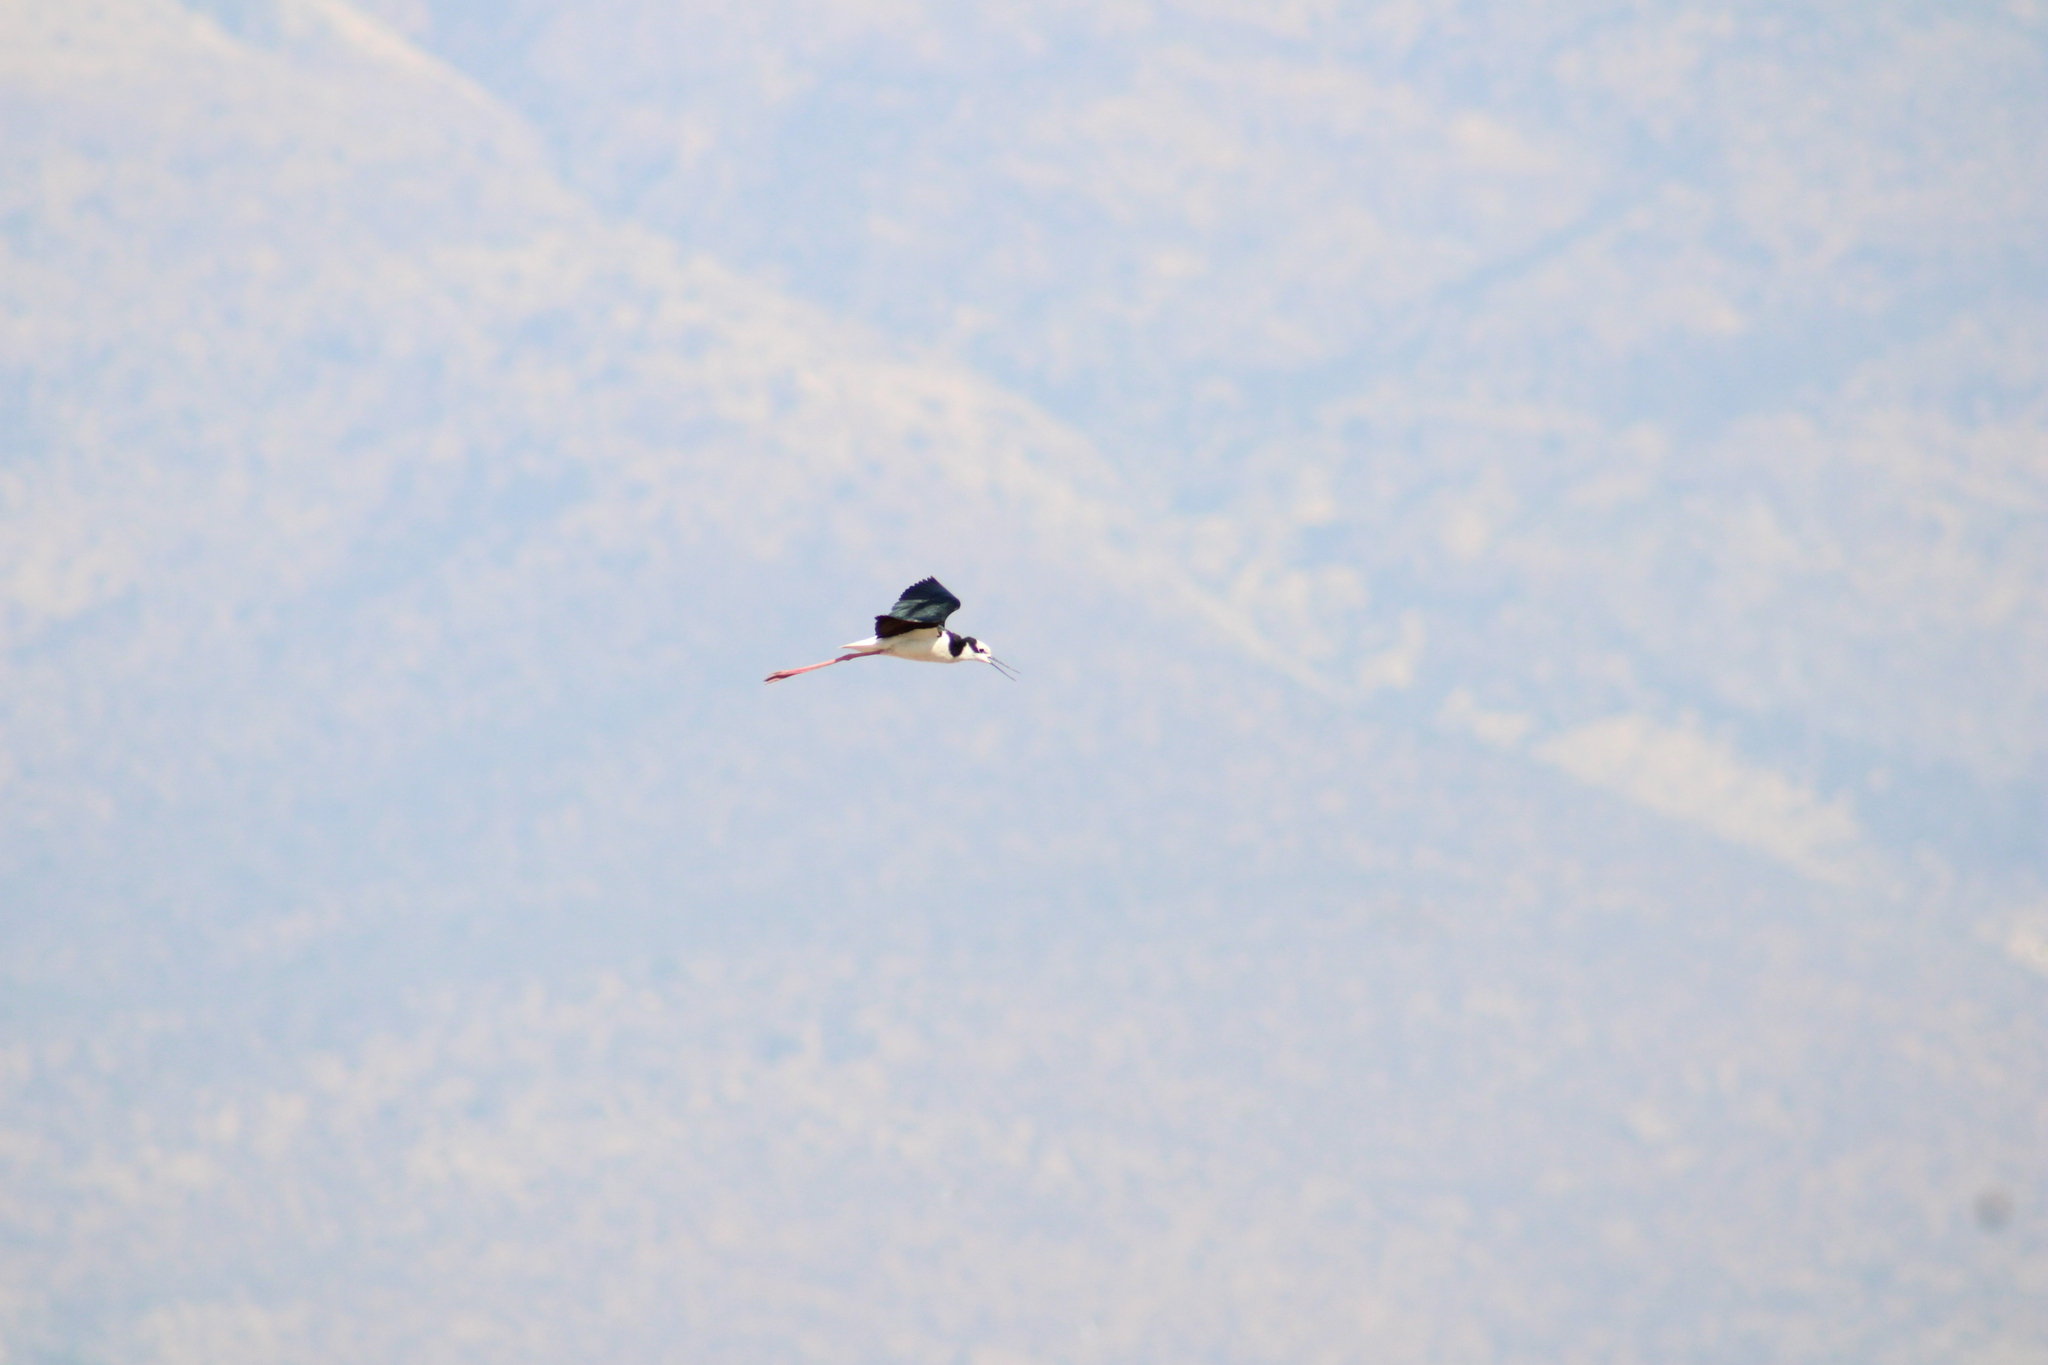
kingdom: Animalia
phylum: Chordata
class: Aves
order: Charadriiformes
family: Recurvirostridae
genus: Himantopus
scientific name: Himantopus mexicanus
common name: Black-necked stilt
